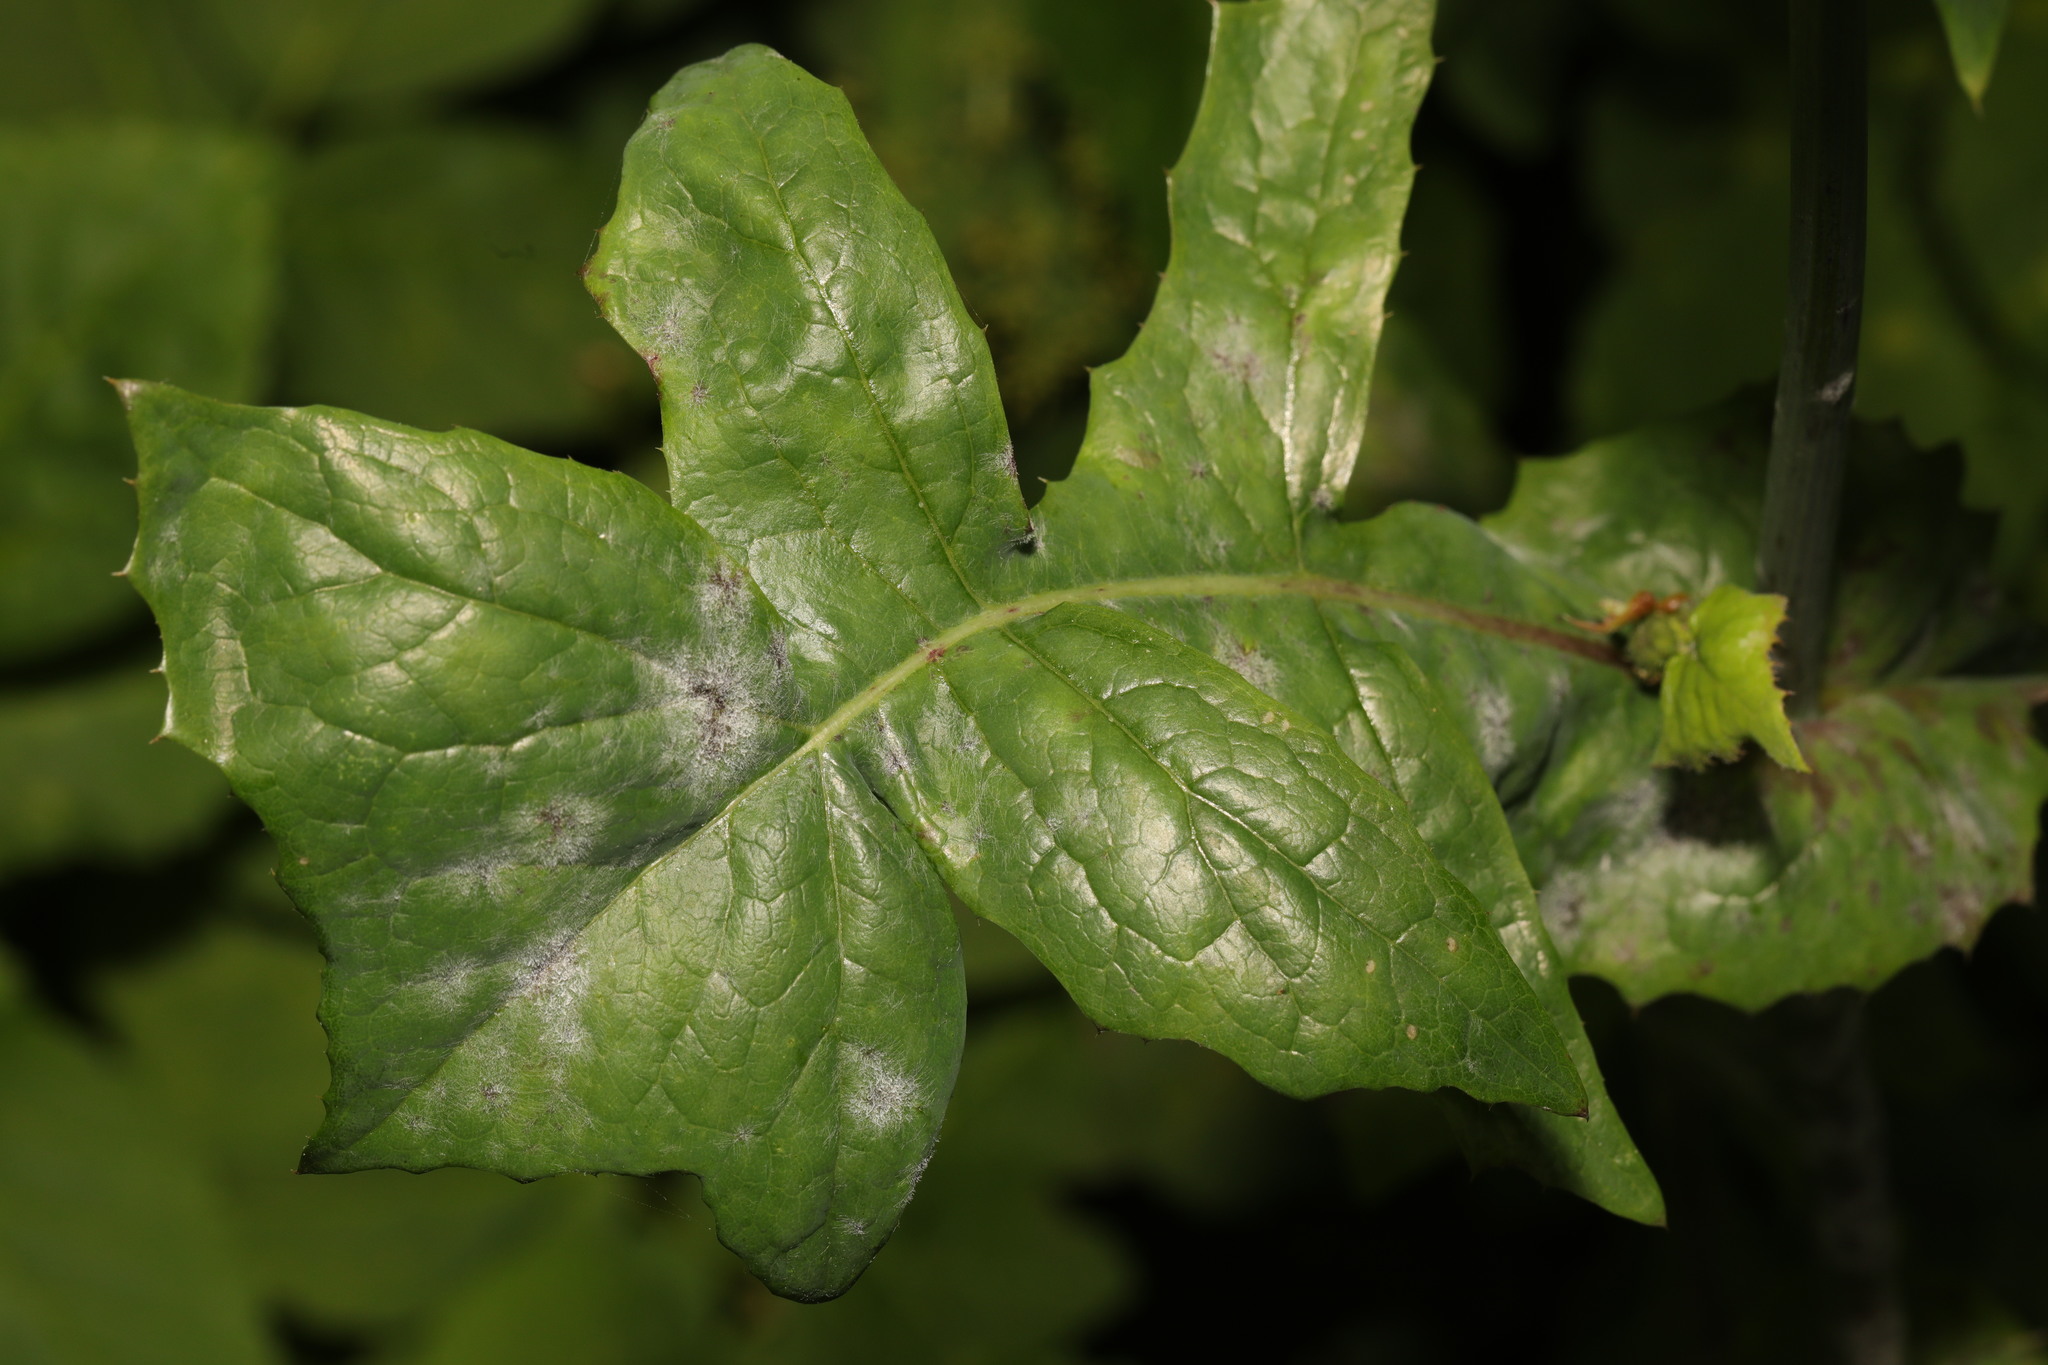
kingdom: Fungi
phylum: Ascomycota
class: Leotiomycetes
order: Helotiales
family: Erysiphaceae
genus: Golovinomyces
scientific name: Golovinomyces sonchicola
